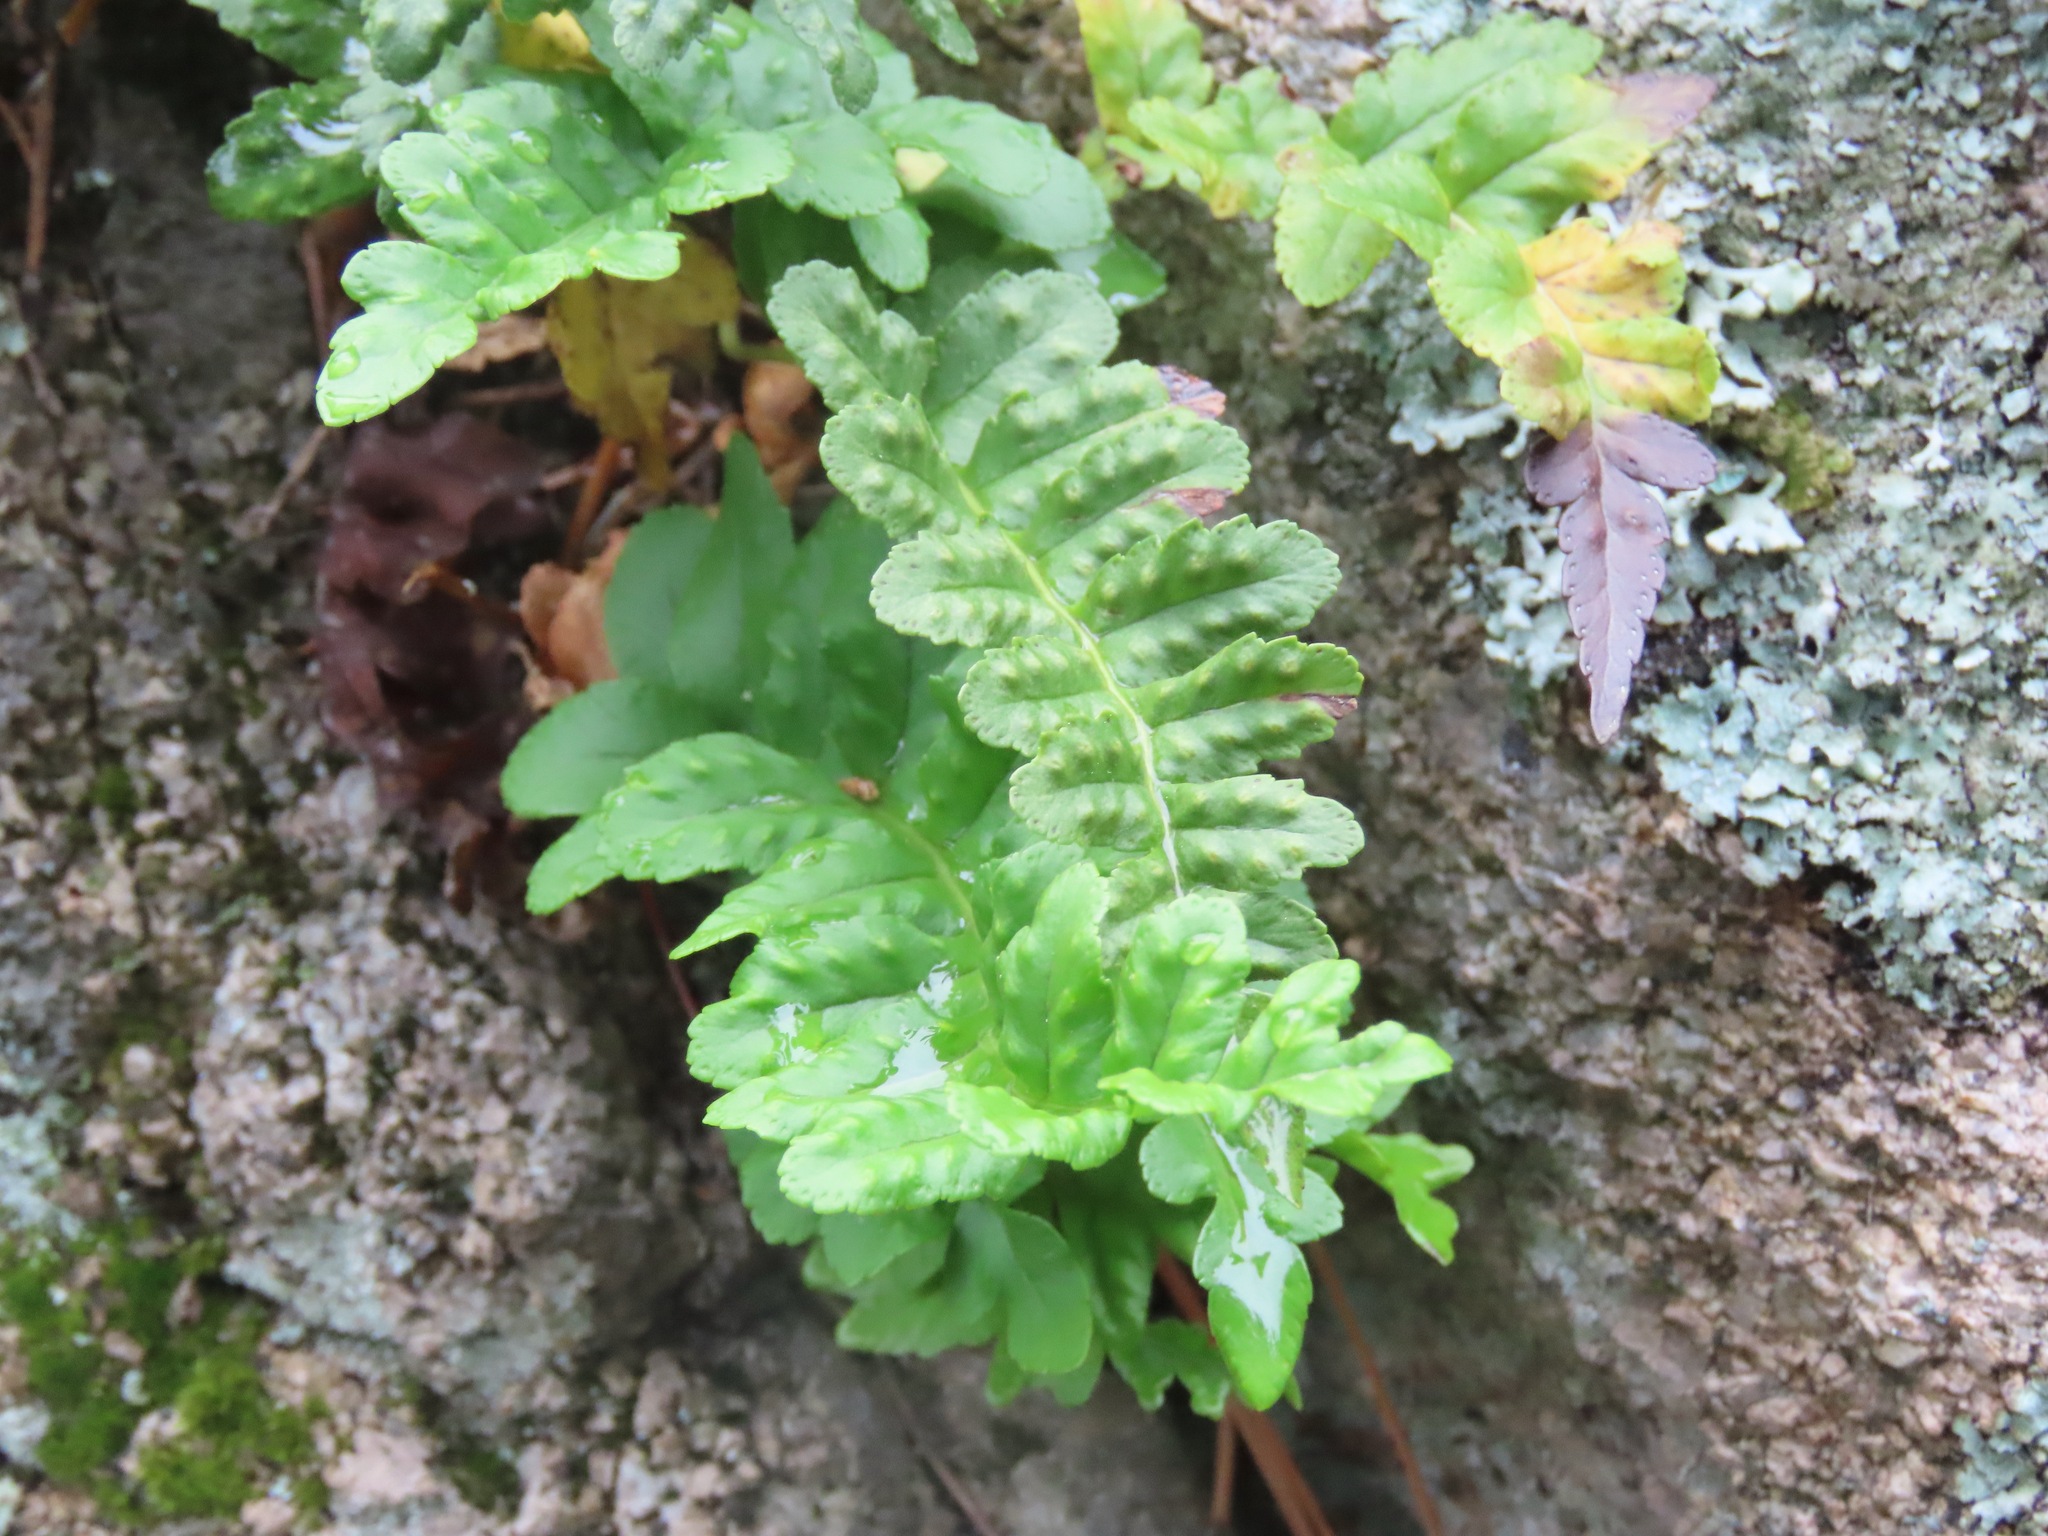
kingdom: Plantae
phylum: Tracheophyta
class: Polypodiopsida
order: Polypodiales
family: Polypodiaceae
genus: Polypodium
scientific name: Polypodium hesperium
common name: Western polypody
